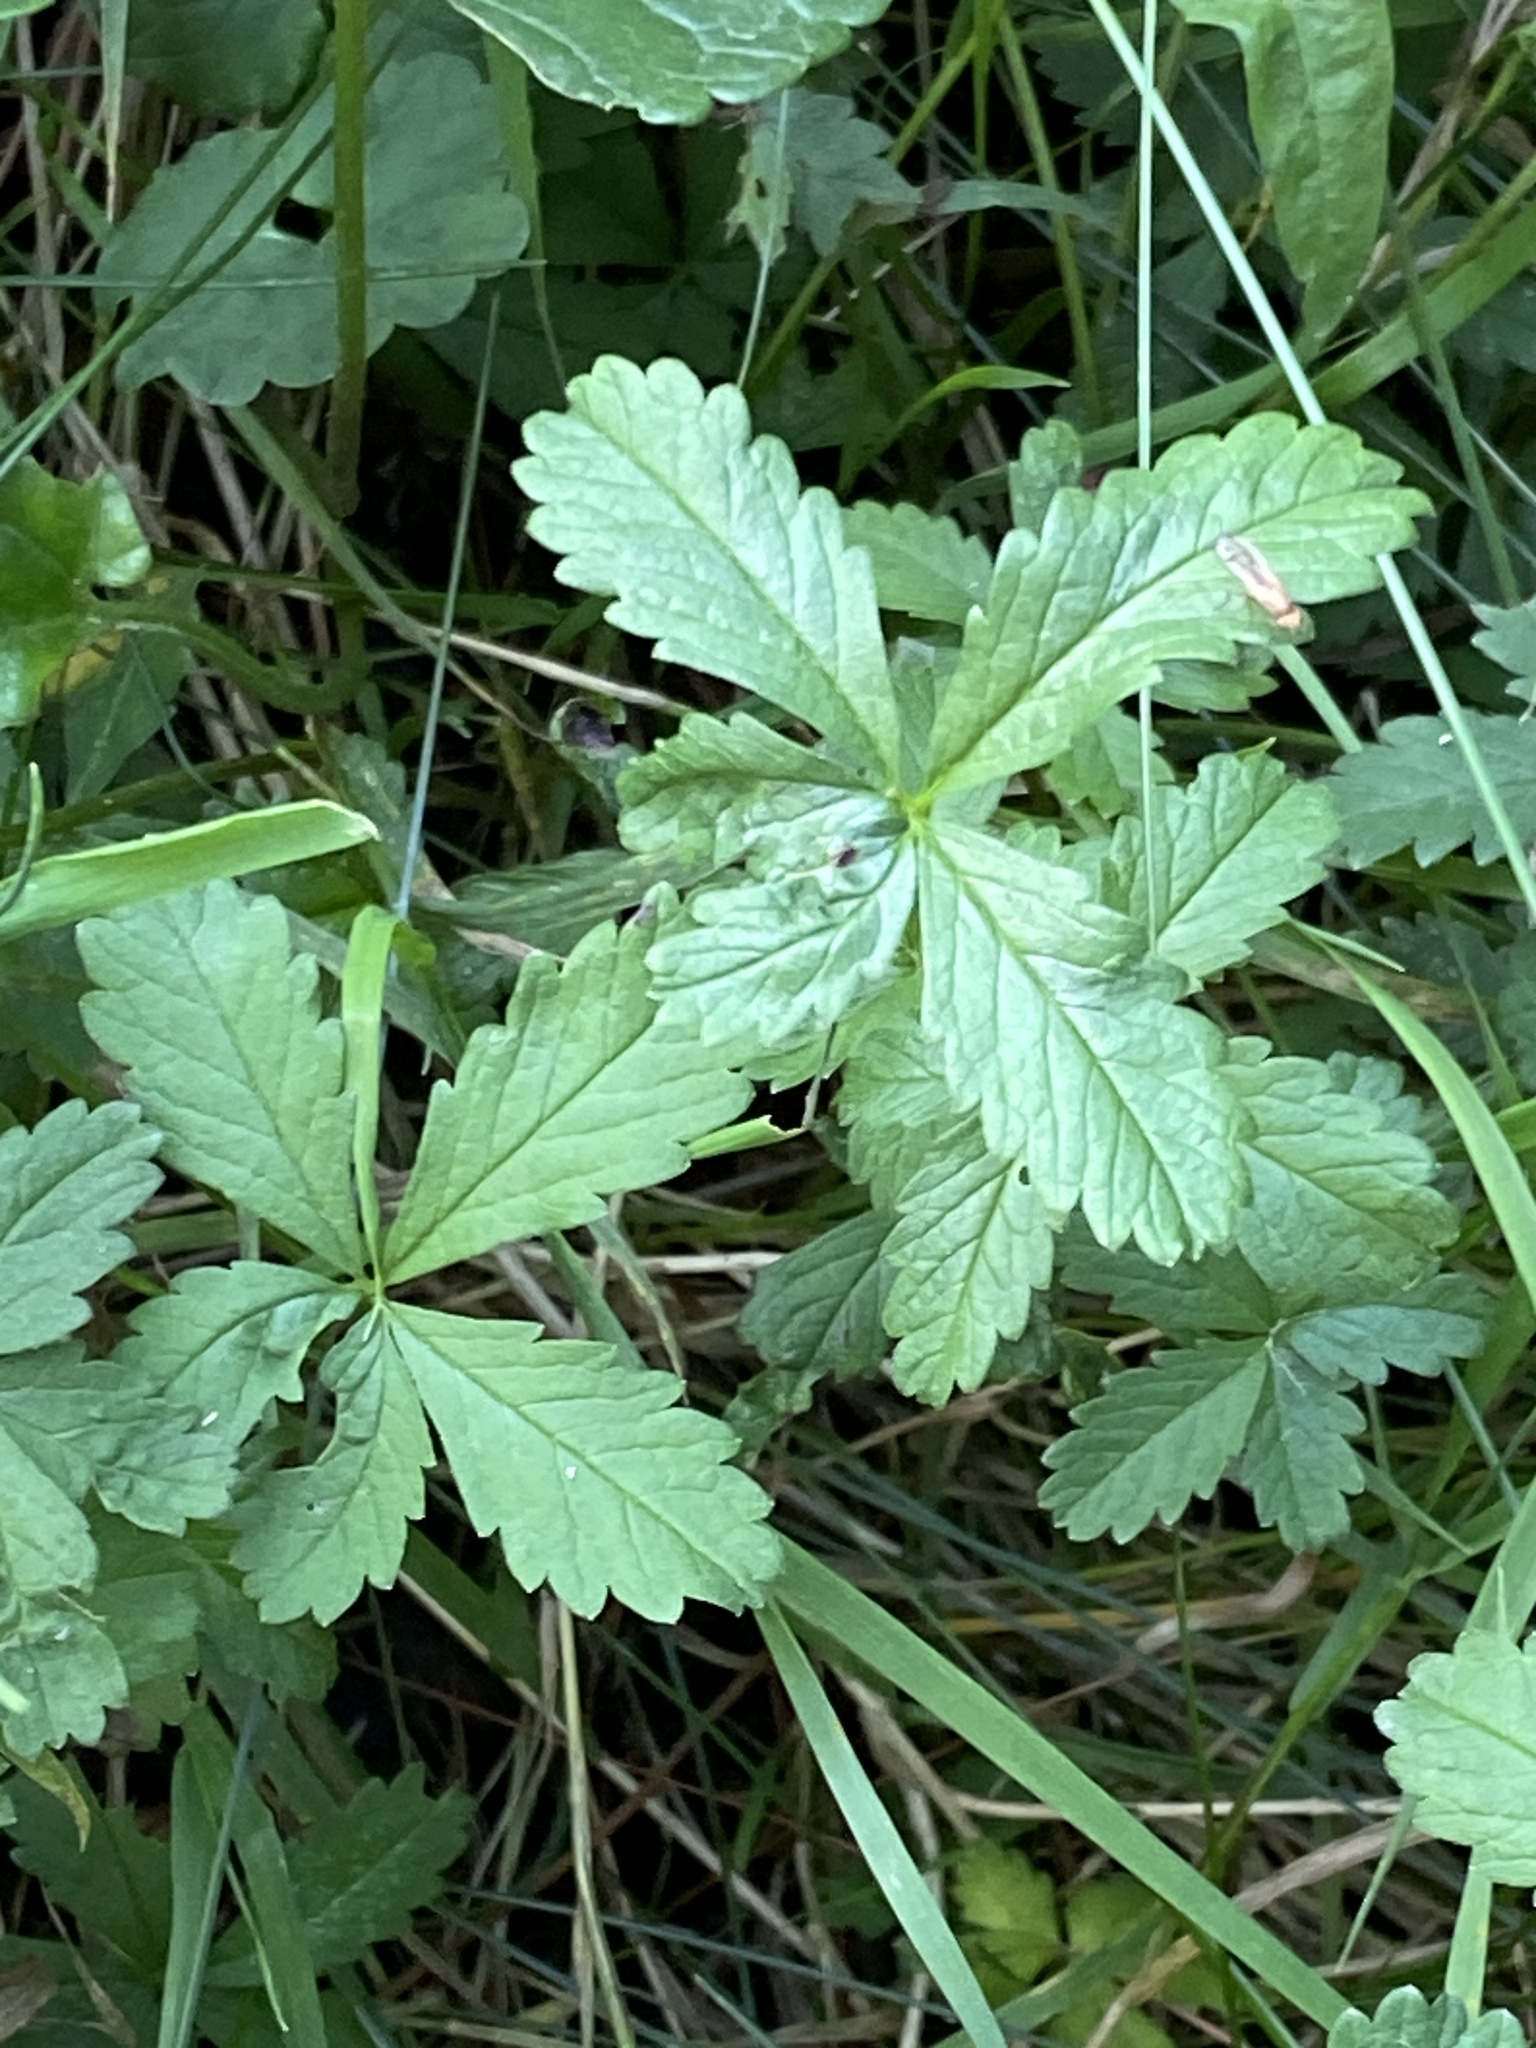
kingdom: Plantae
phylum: Tracheophyta
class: Magnoliopsida
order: Rosales
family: Rosaceae
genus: Potentilla
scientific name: Potentilla reptans
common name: Creeping cinquefoil
